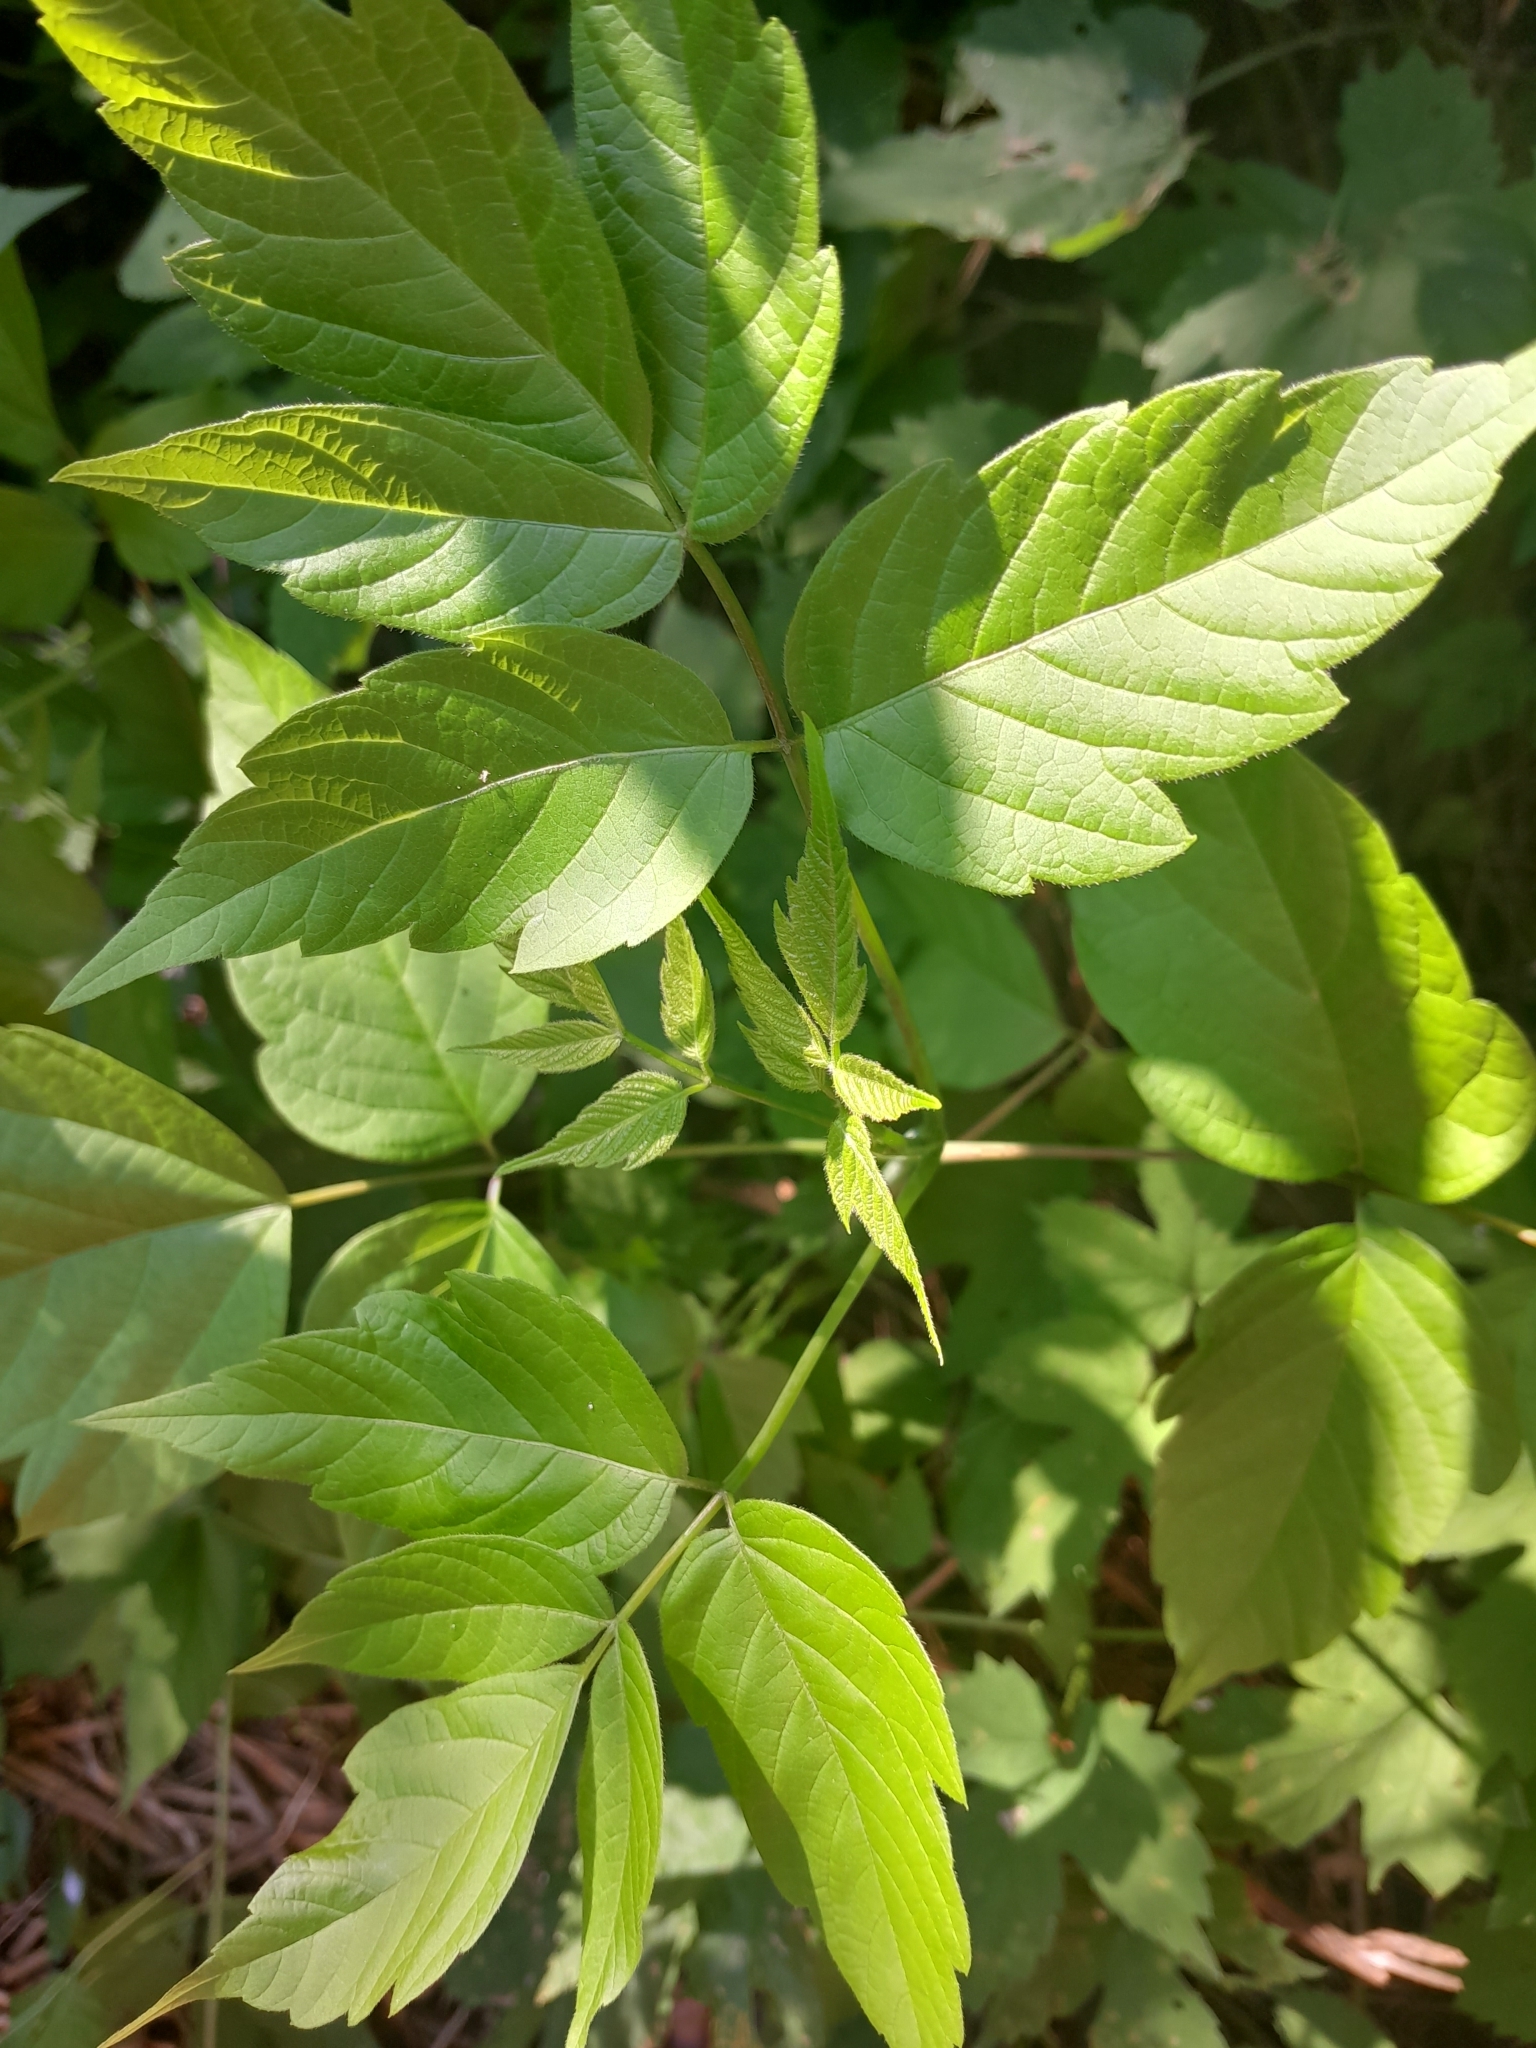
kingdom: Plantae
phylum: Tracheophyta
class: Magnoliopsida
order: Sapindales
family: Sapindaceae
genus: Acer
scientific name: Acer negundo
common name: Ashleaf maple
